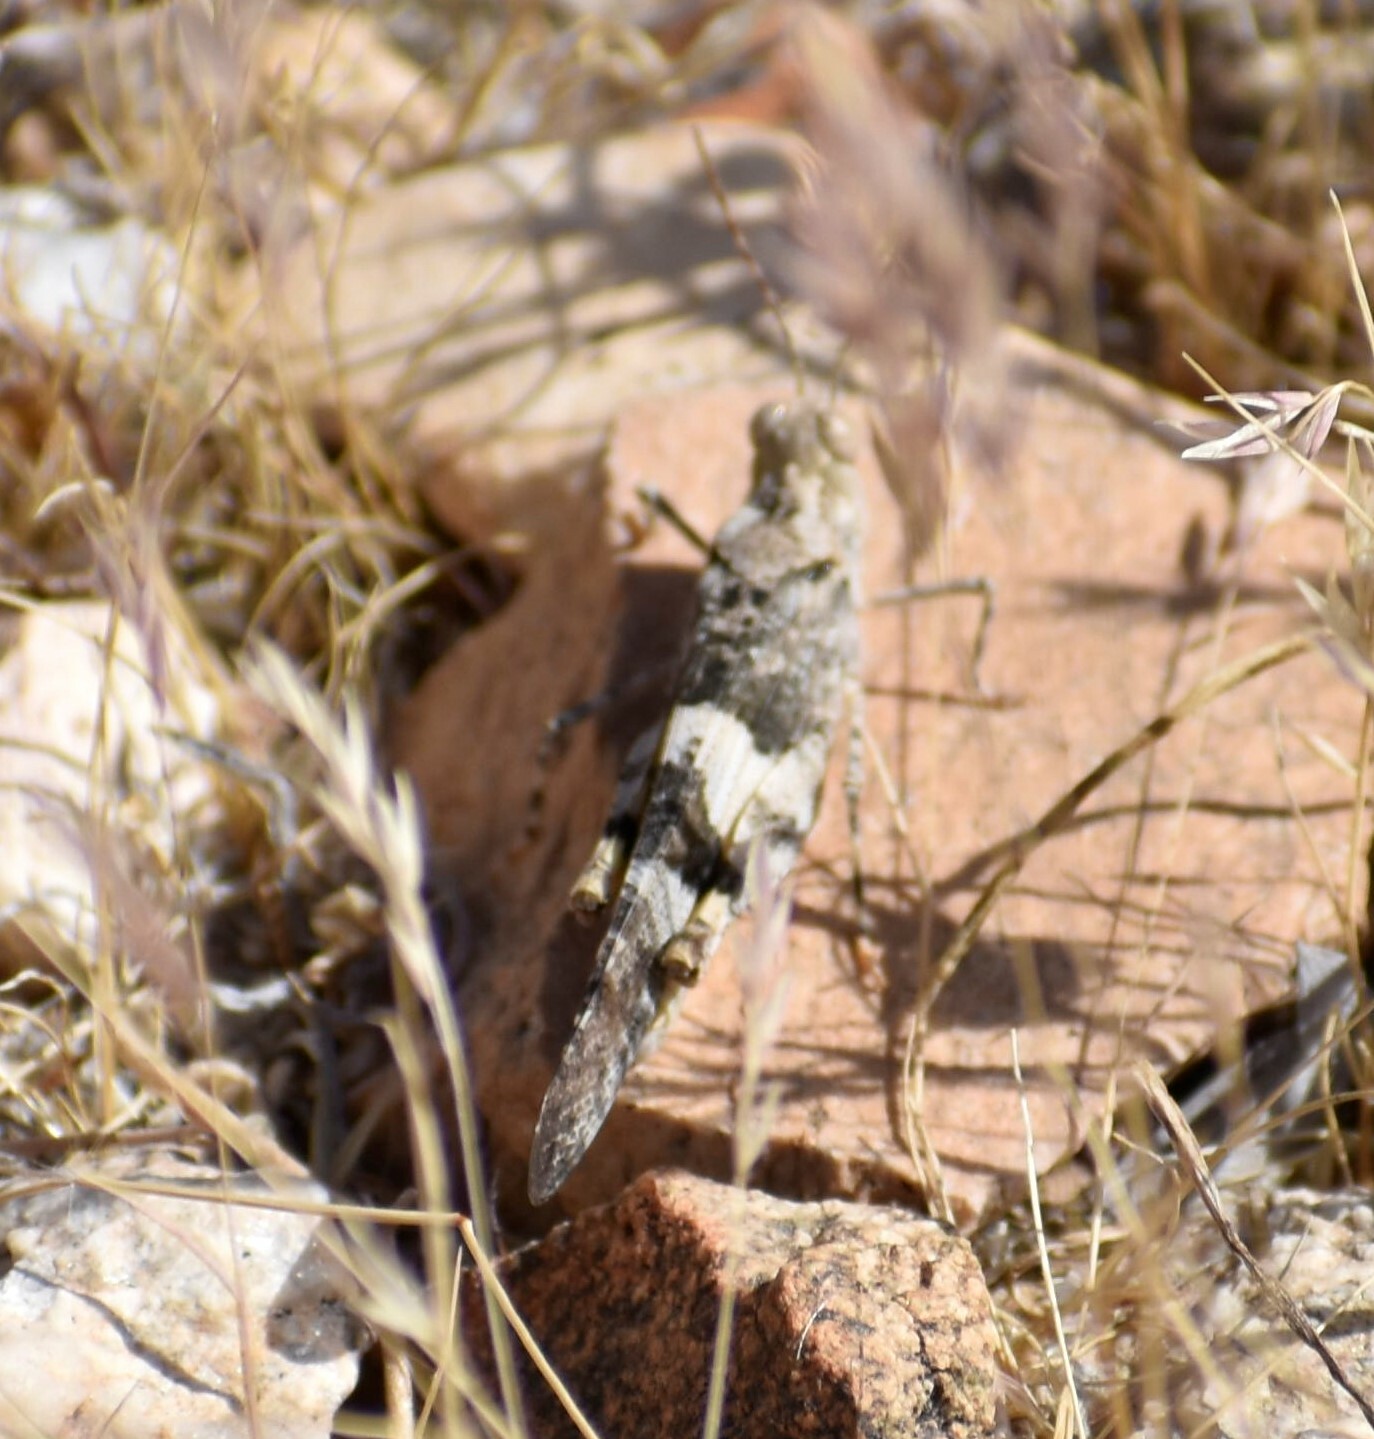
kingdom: Animalia
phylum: Arthropoda
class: Insecta
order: Orthoptera
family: Acrididae
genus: Trimerotropis
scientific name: Trimerotropis pallidipennis
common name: Pallid-winged grasshopper
